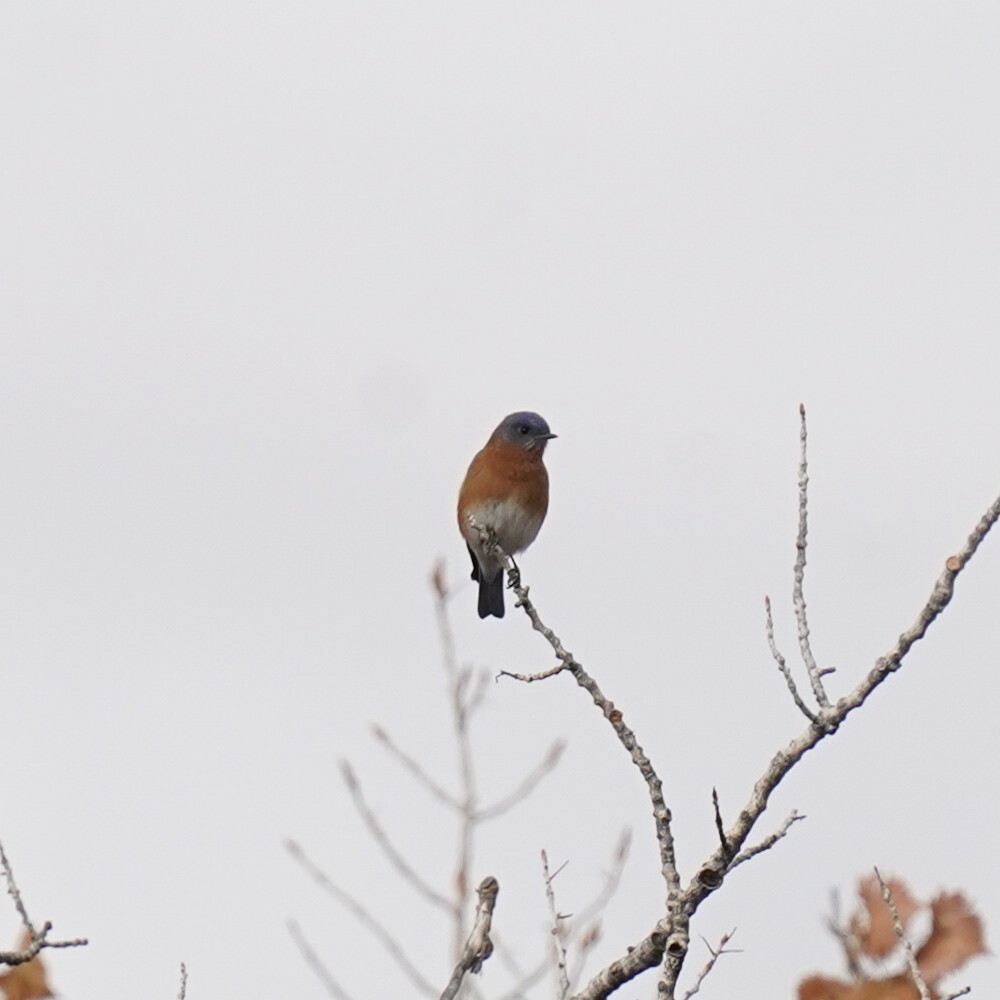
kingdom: Animalia
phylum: Chordata
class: Aves
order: Passeriformes
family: Turdidae
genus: Sialia
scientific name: Sialia sialis
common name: Eastern bluebird
